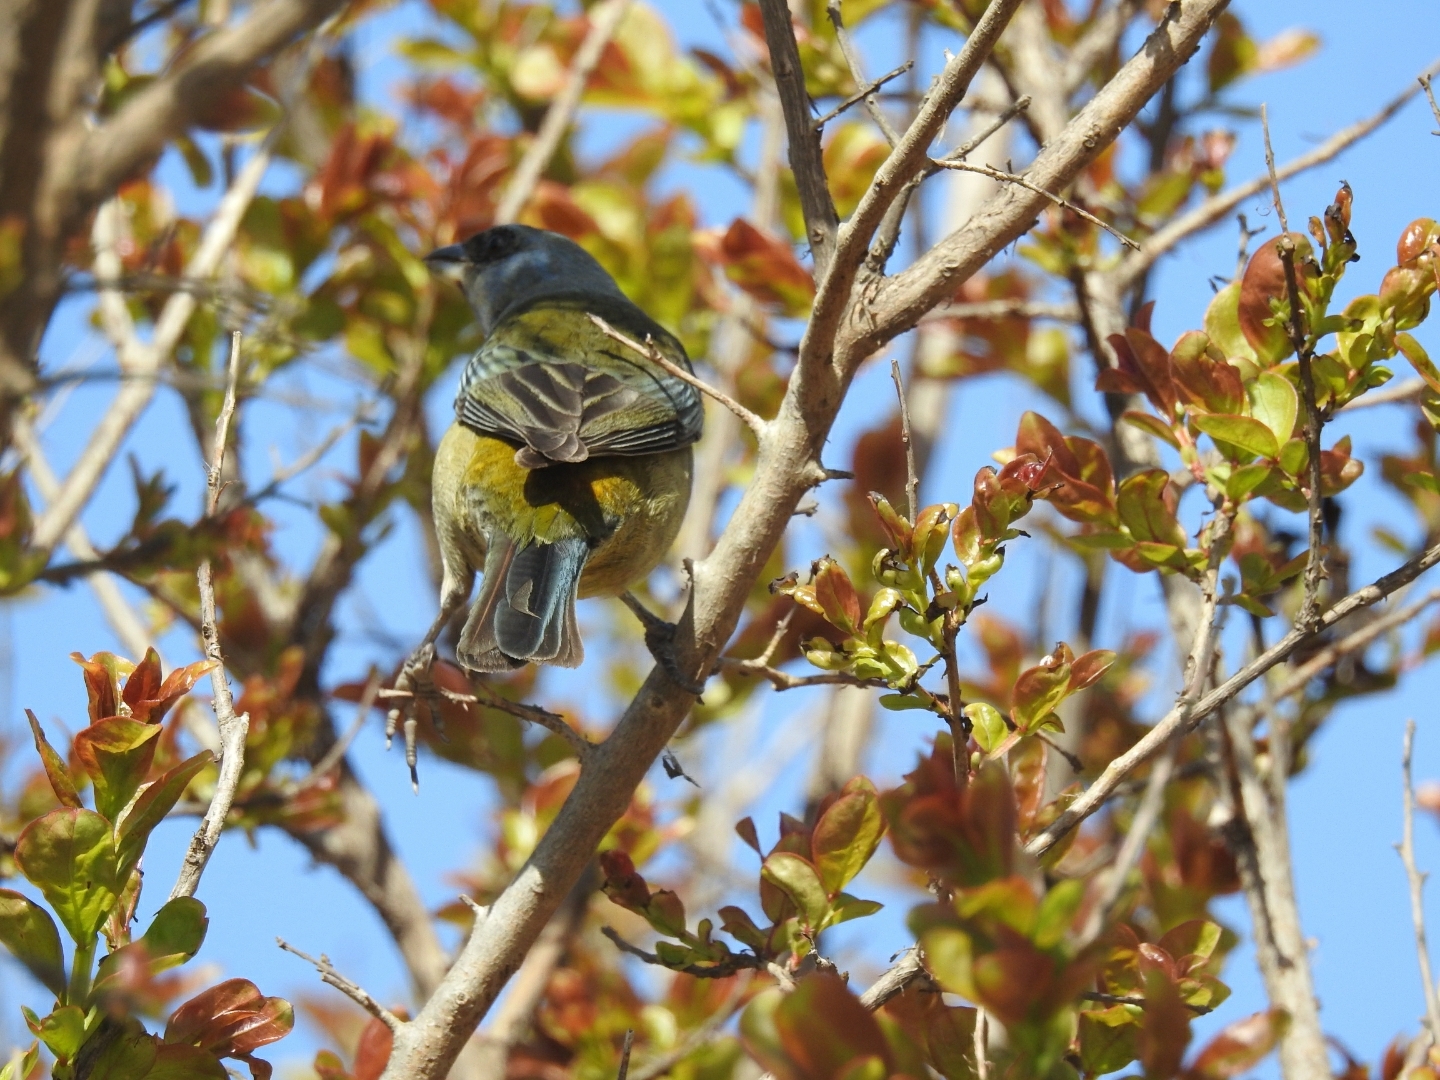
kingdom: Animalia
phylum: Chordata
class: Aves
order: Passeriformes
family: Thraupidae
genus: Rauenia
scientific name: Rauenia bonariensis
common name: Blue-and-yellow tanager
